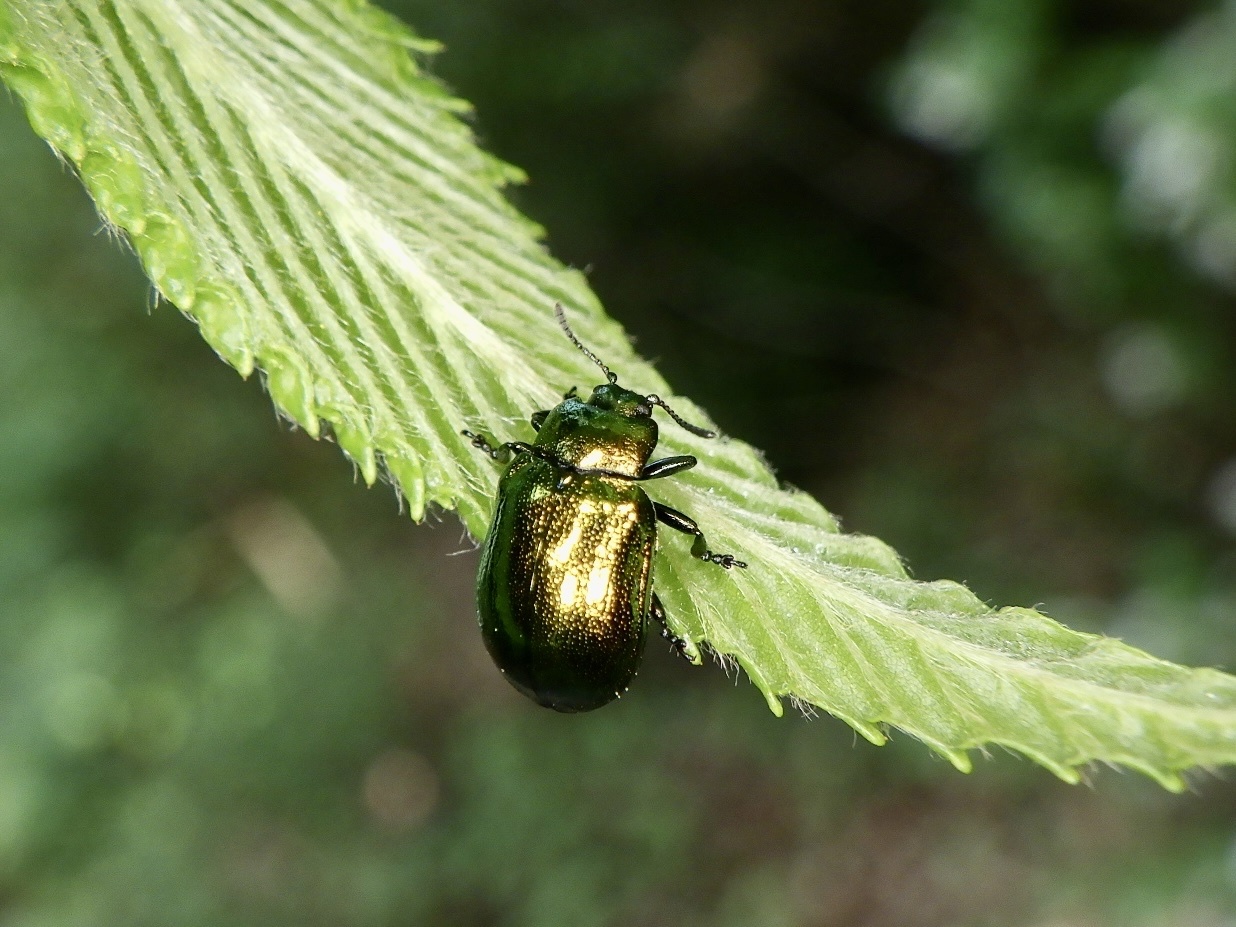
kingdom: Animalia
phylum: Arthropoda
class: Insecta
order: Coleoptera
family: Chrysomelidae
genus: Plagiosterna
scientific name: Plagiosterna aenea
